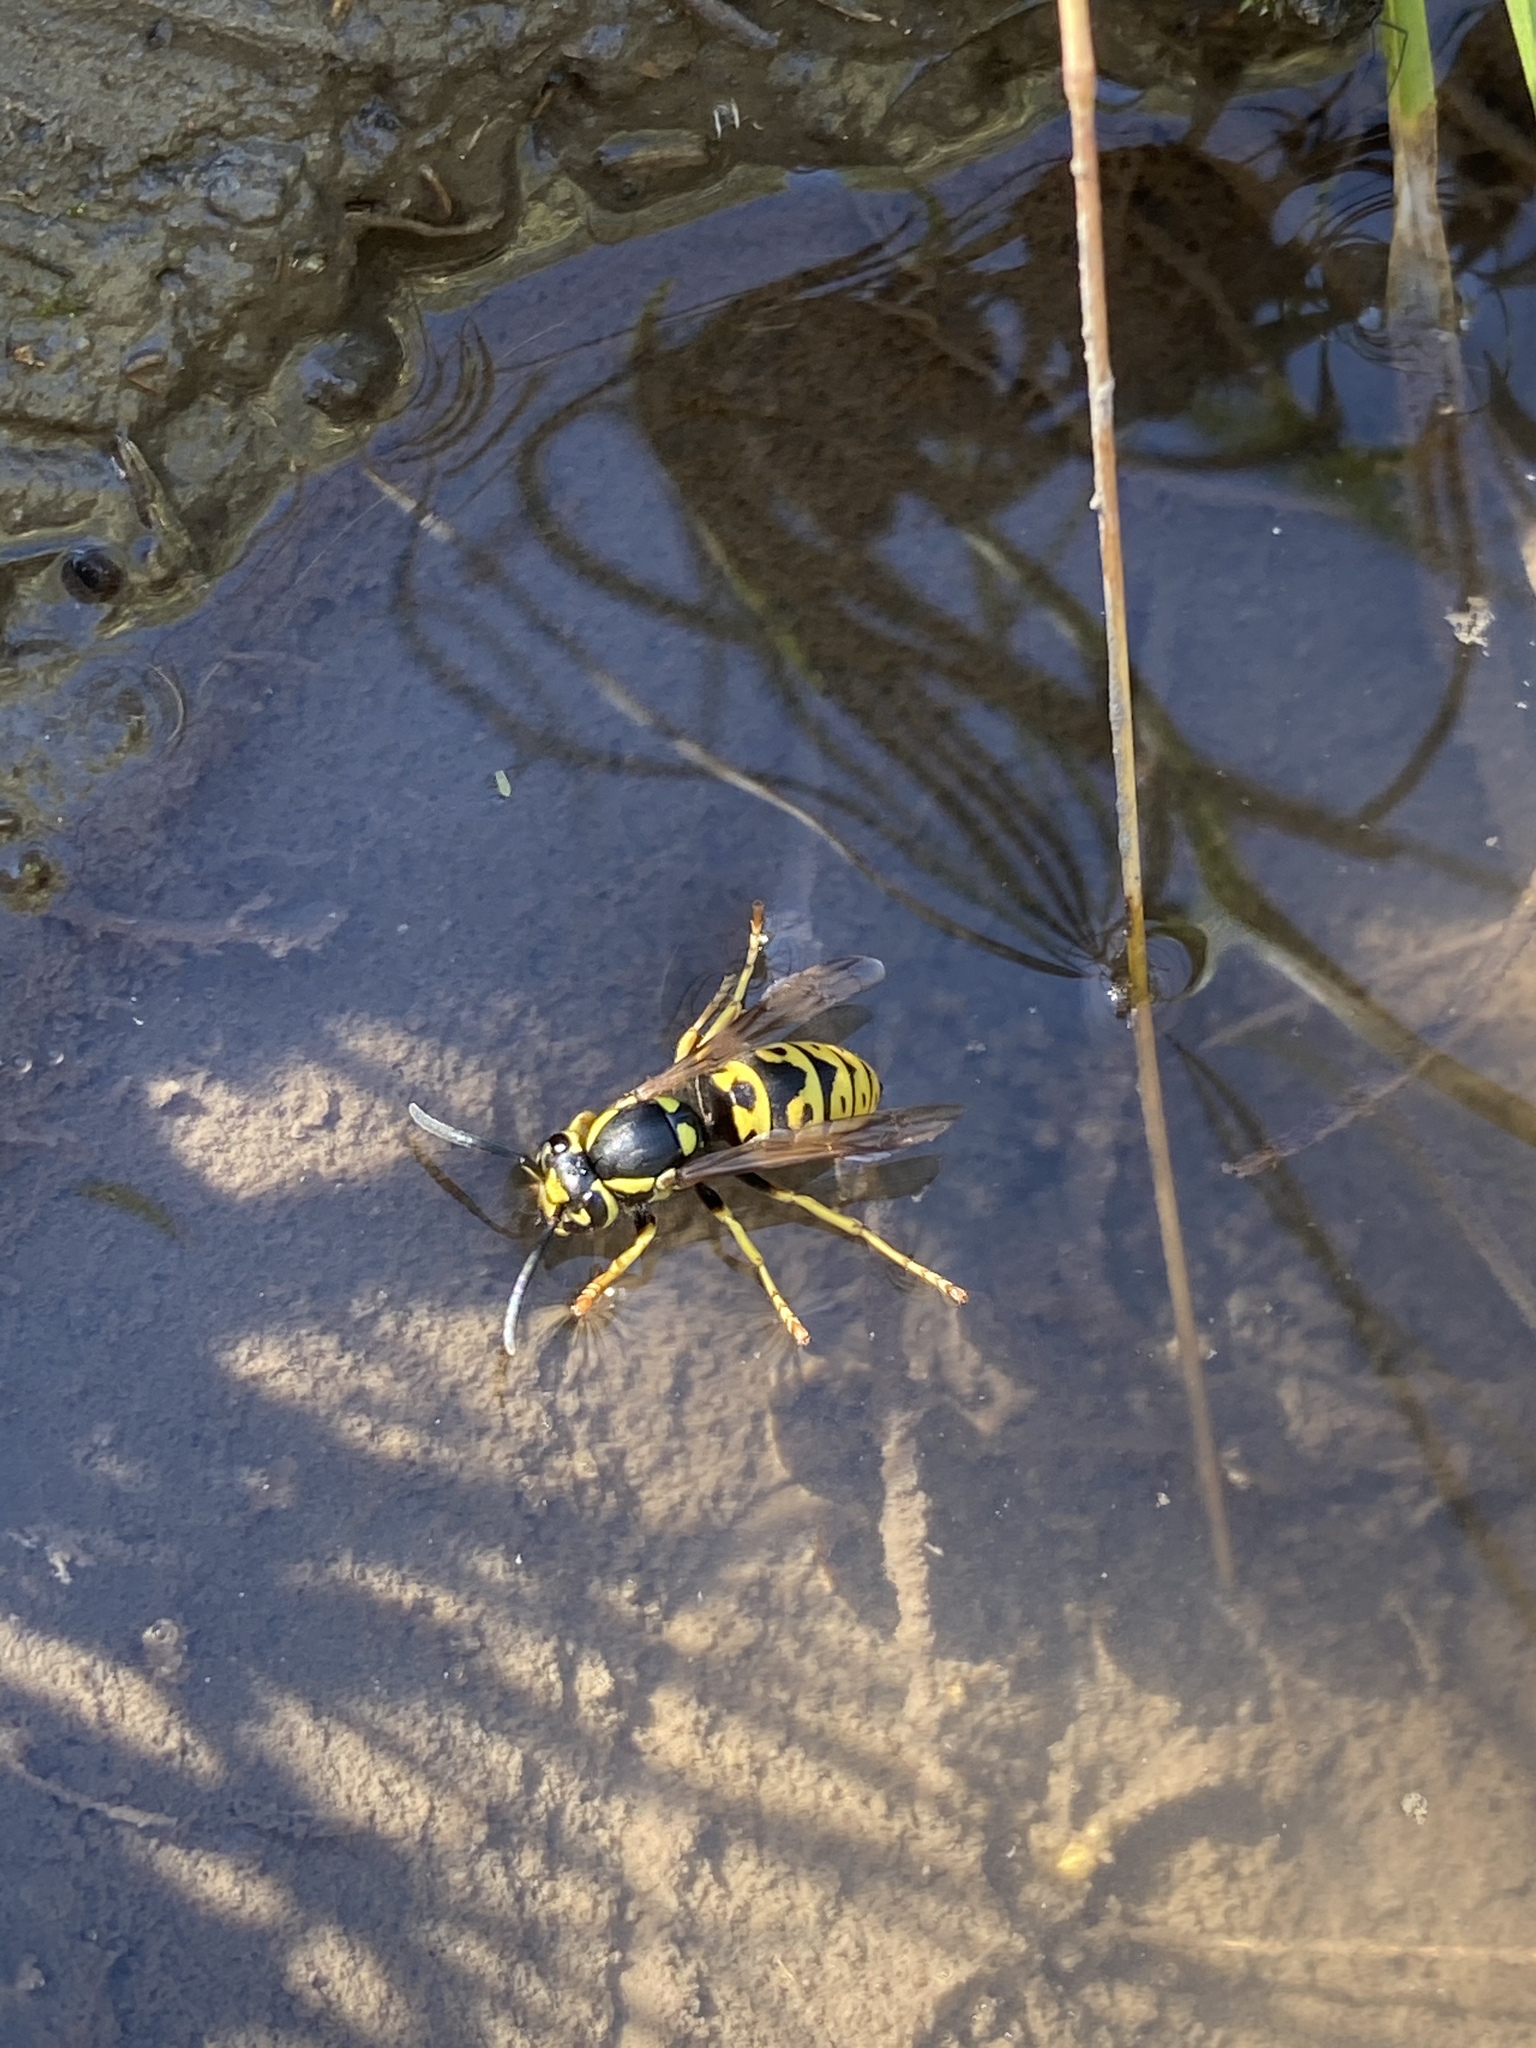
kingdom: Animalia
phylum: Arthropoda
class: Insecta
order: Hymenoptera
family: Vespidae
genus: Vespula
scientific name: Vespula atropilosa
